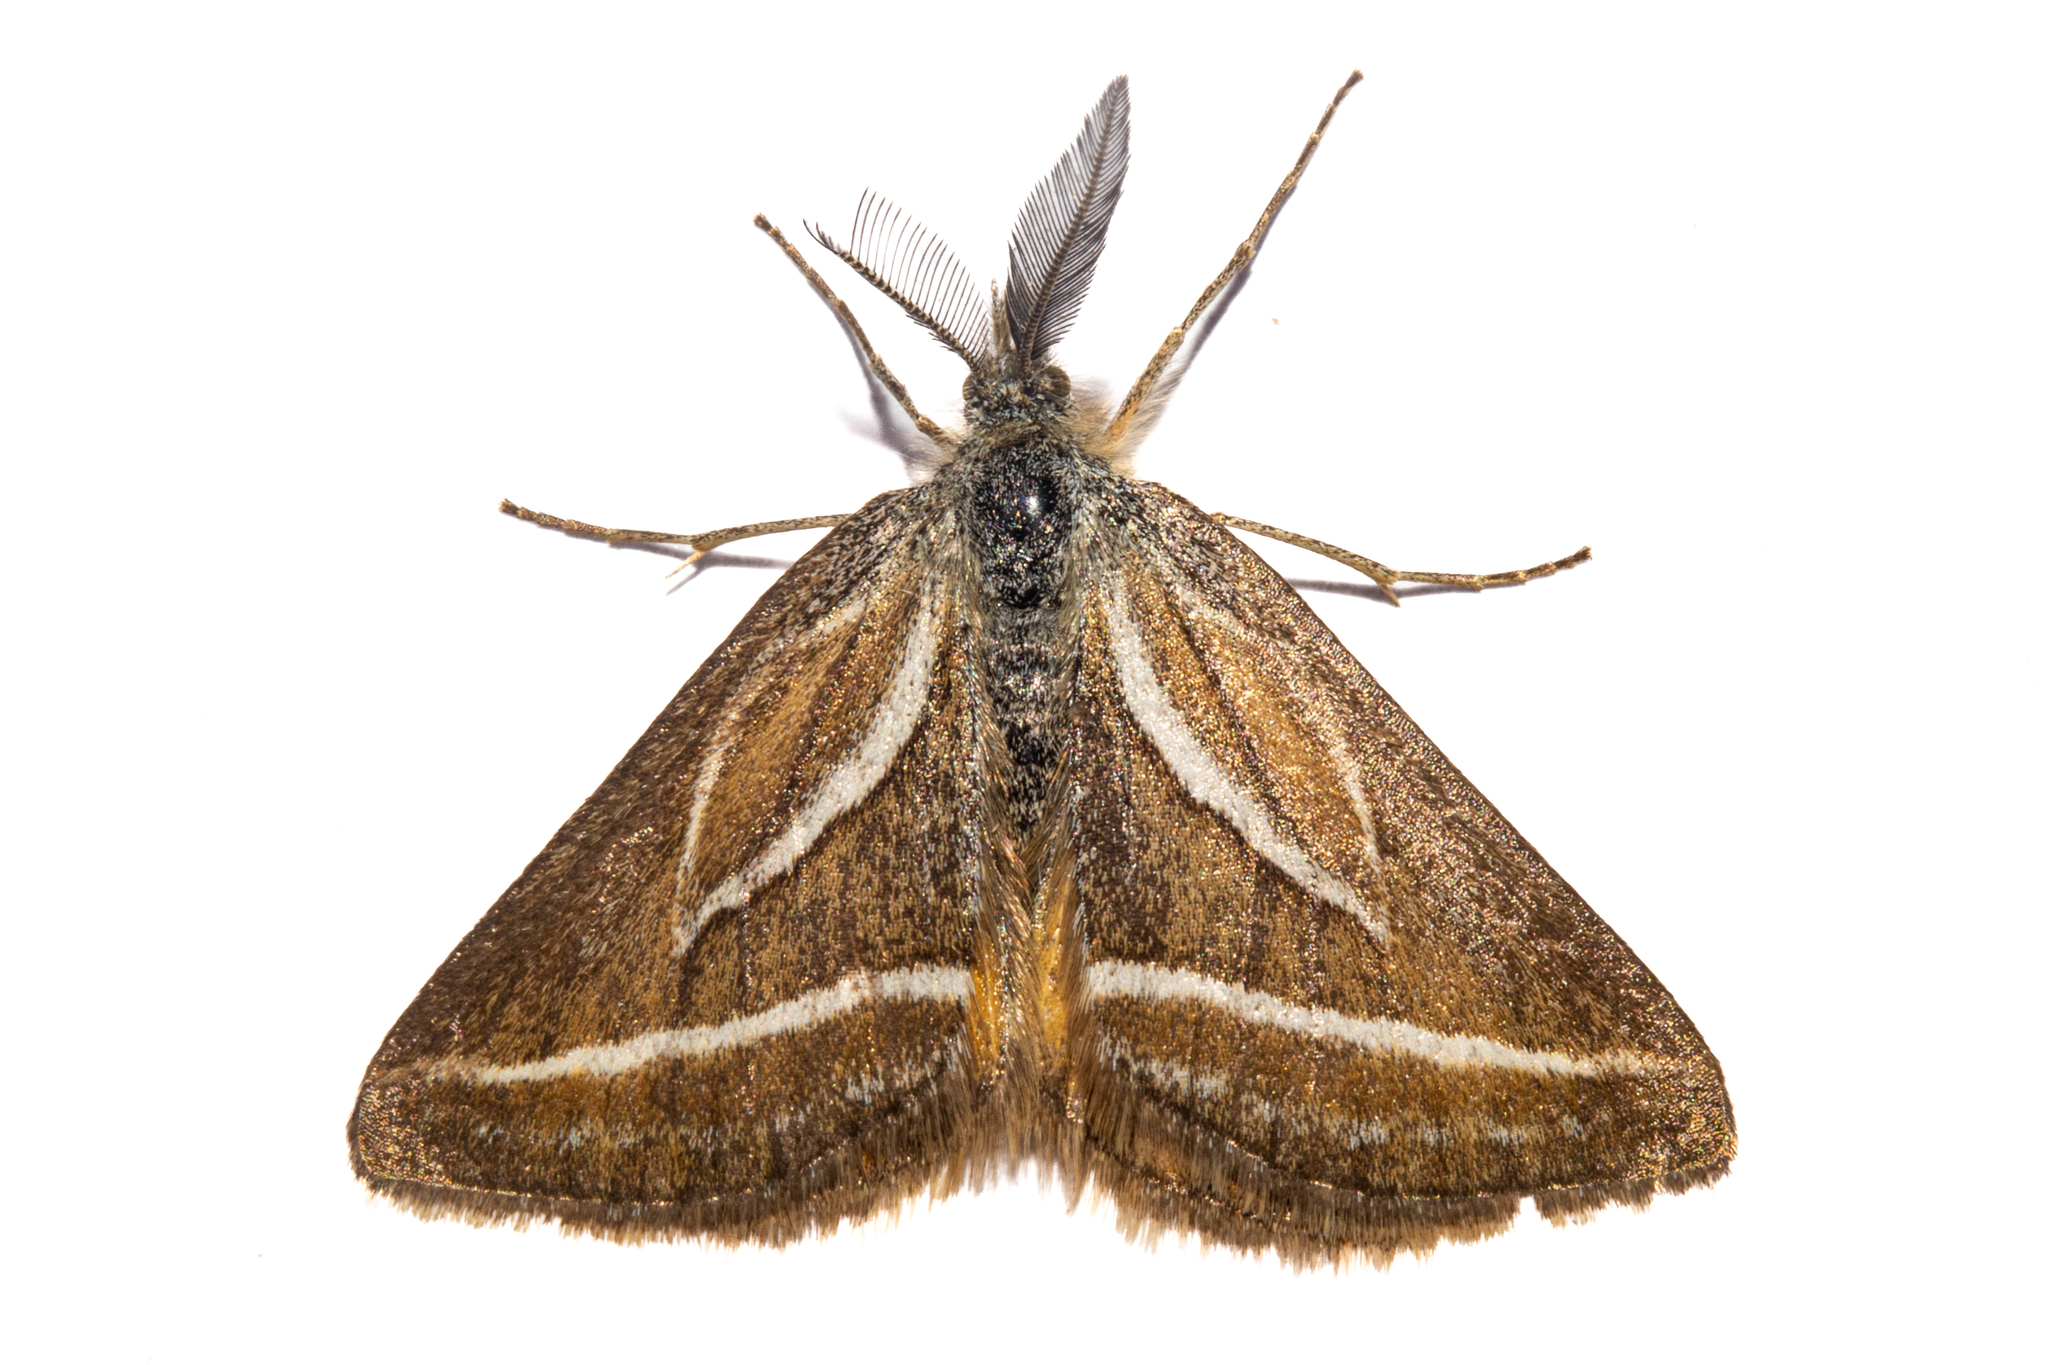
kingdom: Animalia
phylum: Arthropoda
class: Insecta
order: Lepidoptera
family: Geometridae
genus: Aponotoreas
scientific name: Aponotoreas insignis
